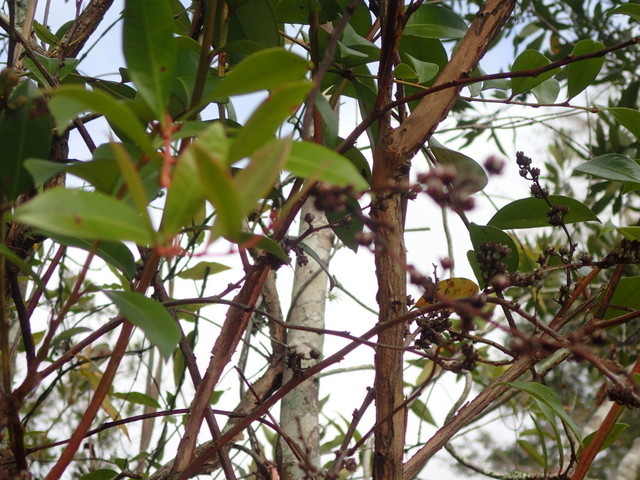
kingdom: Plantae
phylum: Tracheophyta
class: Magnoliopsida
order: Ericales
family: Ericaceae
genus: Lyonia
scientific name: Lyonia lucida
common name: Fetterbush
